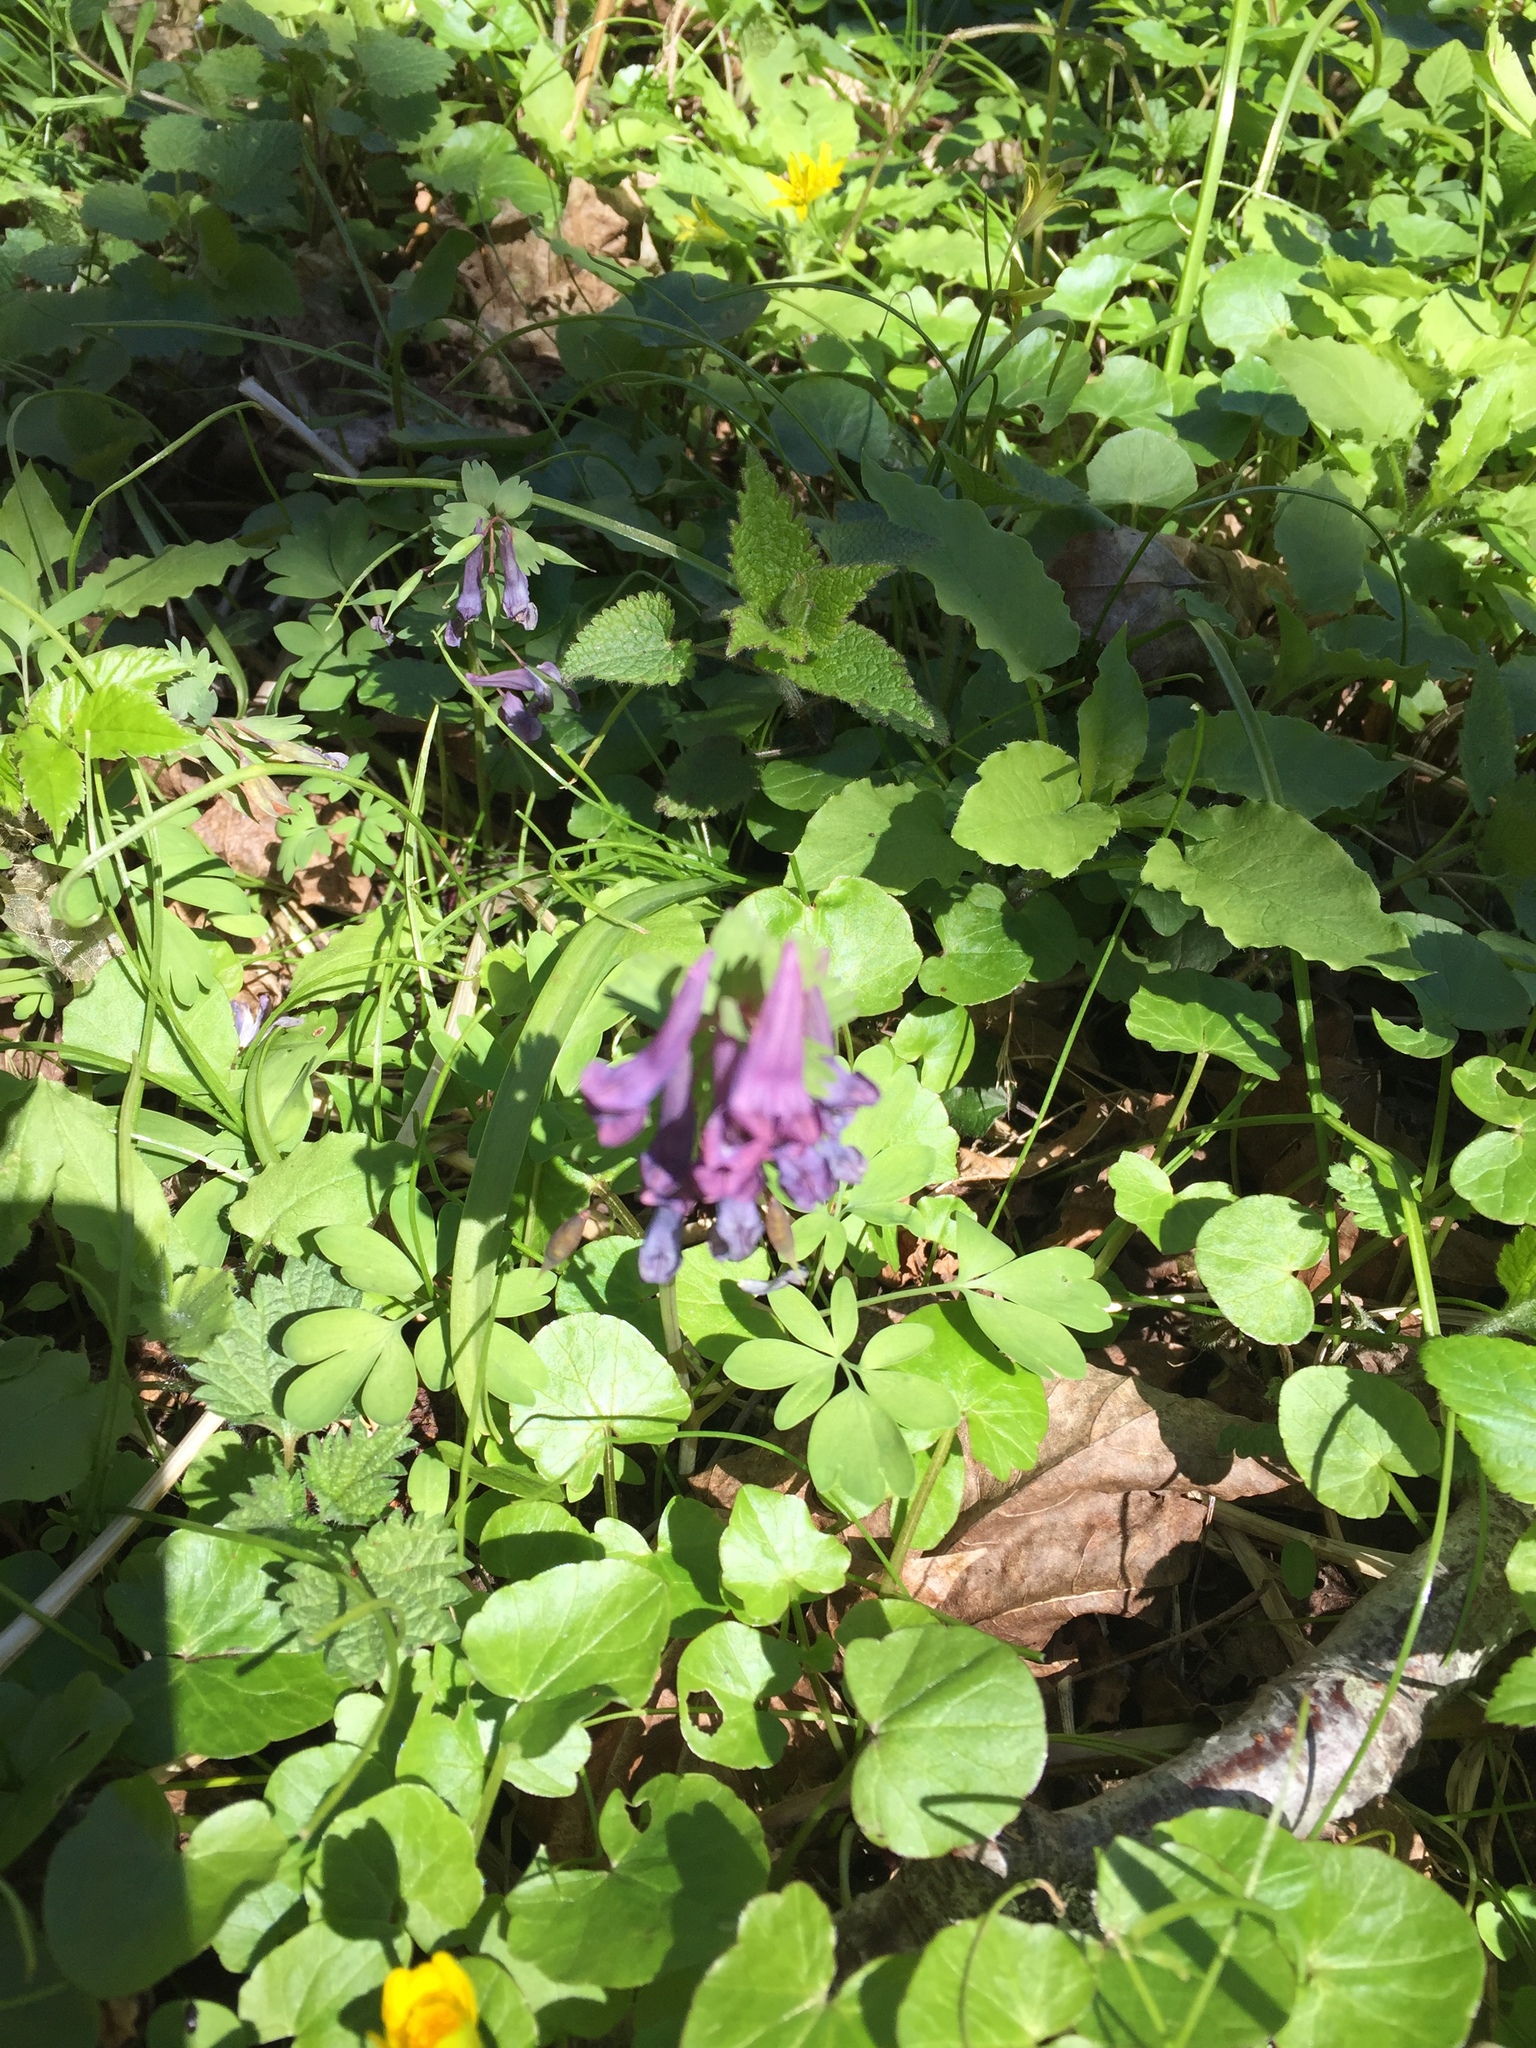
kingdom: Plantae
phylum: Tracheophyta
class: Magnoliopsida
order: Ranunculales
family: Papaveraceae
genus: Corydalis
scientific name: Corydalis solida
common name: Bird-in-a-bush
